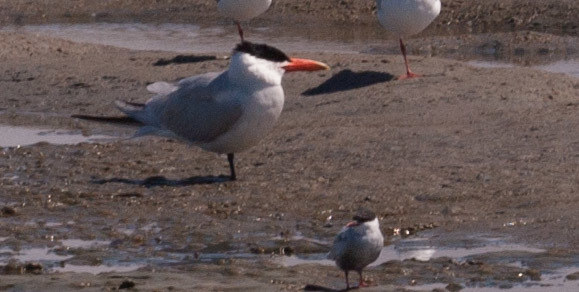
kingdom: Animalia
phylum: Chordata
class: Aves
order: Charadriiformes
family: Laridae
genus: Hydroprogne
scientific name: Hydroprogne caspia
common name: Caspian tern
